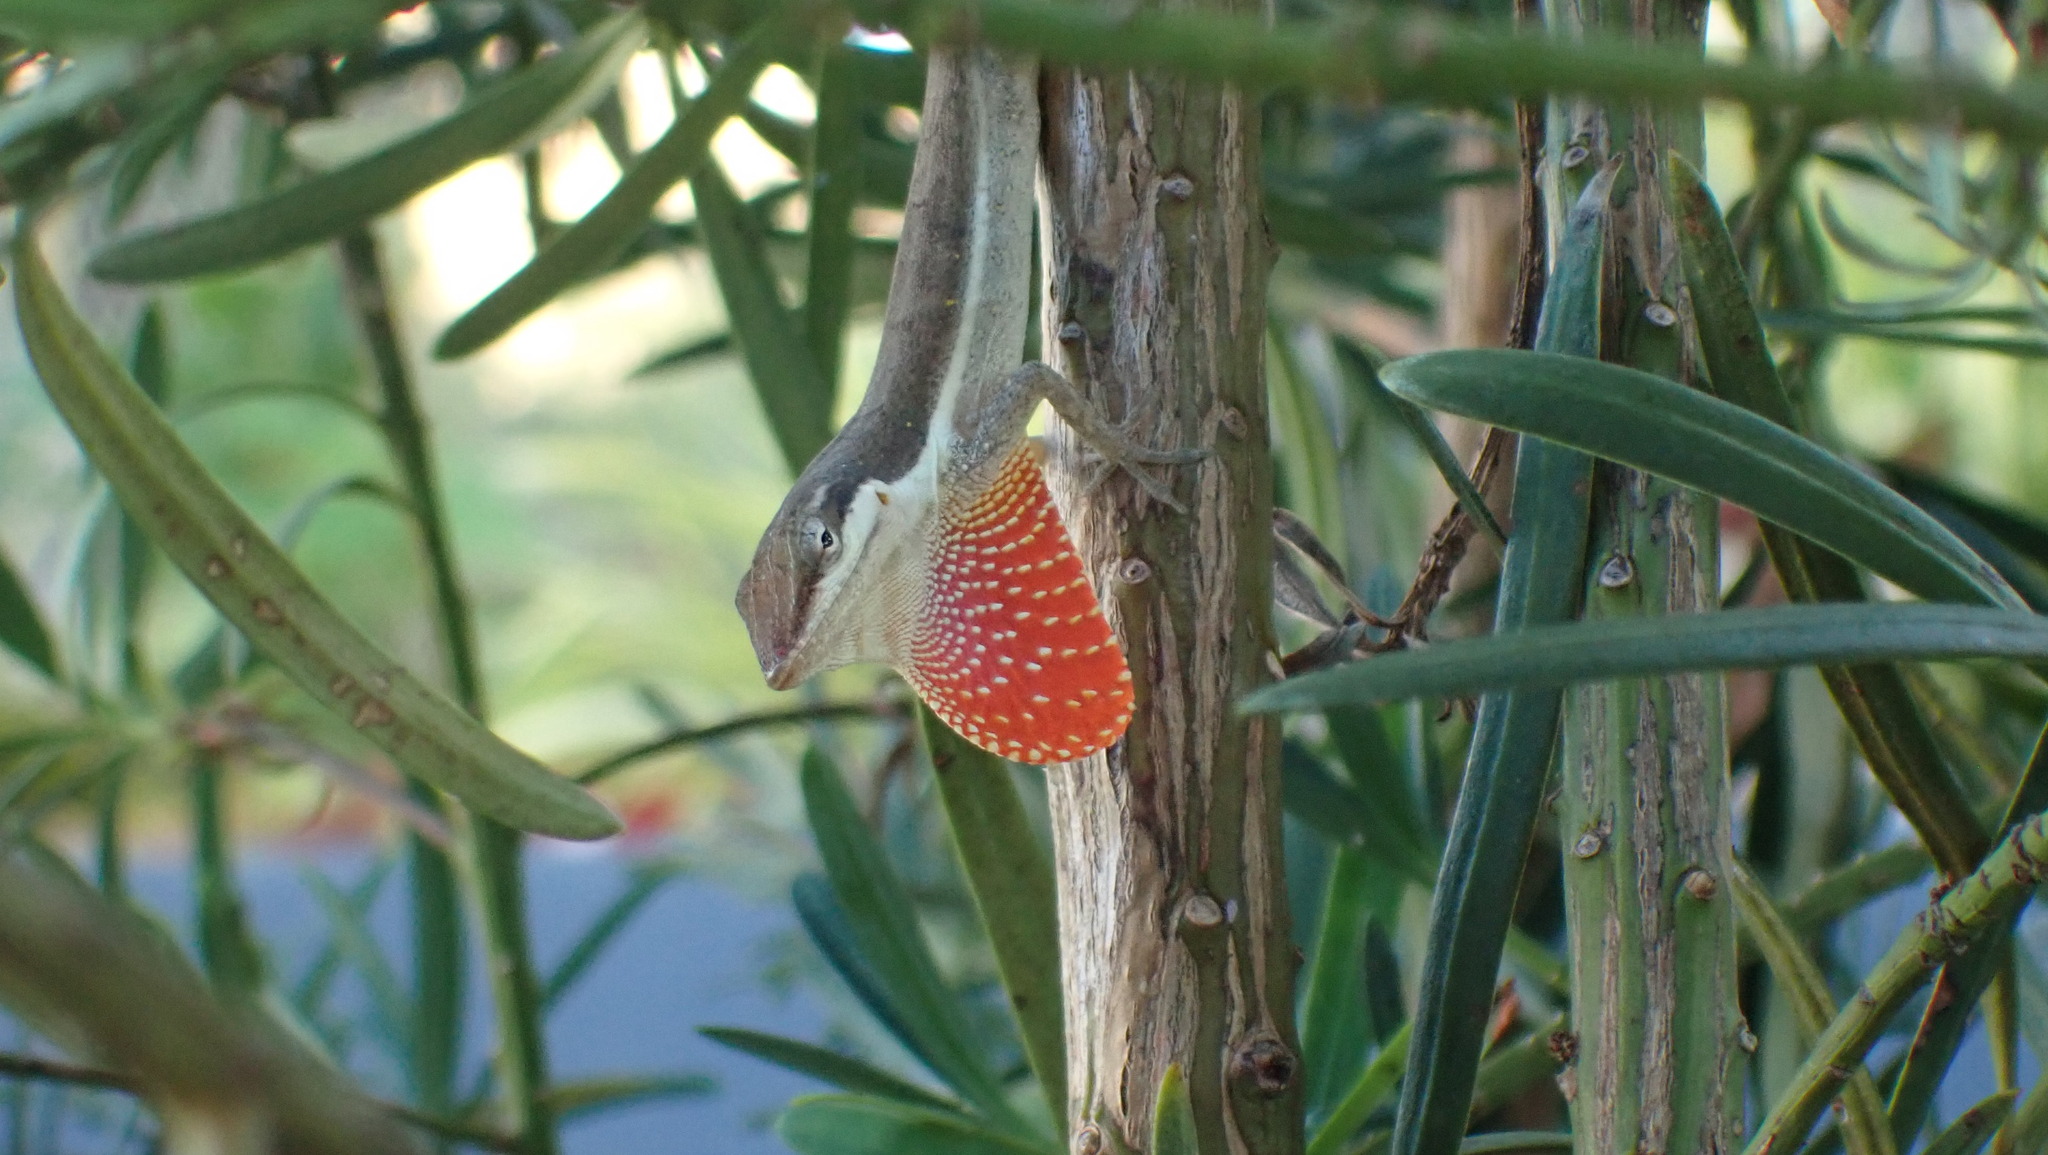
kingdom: Animalia
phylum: Chordata
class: Squamata
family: Dactyloidae
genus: Anolis
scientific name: Anolis pulchellus
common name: Puerto rican anole
